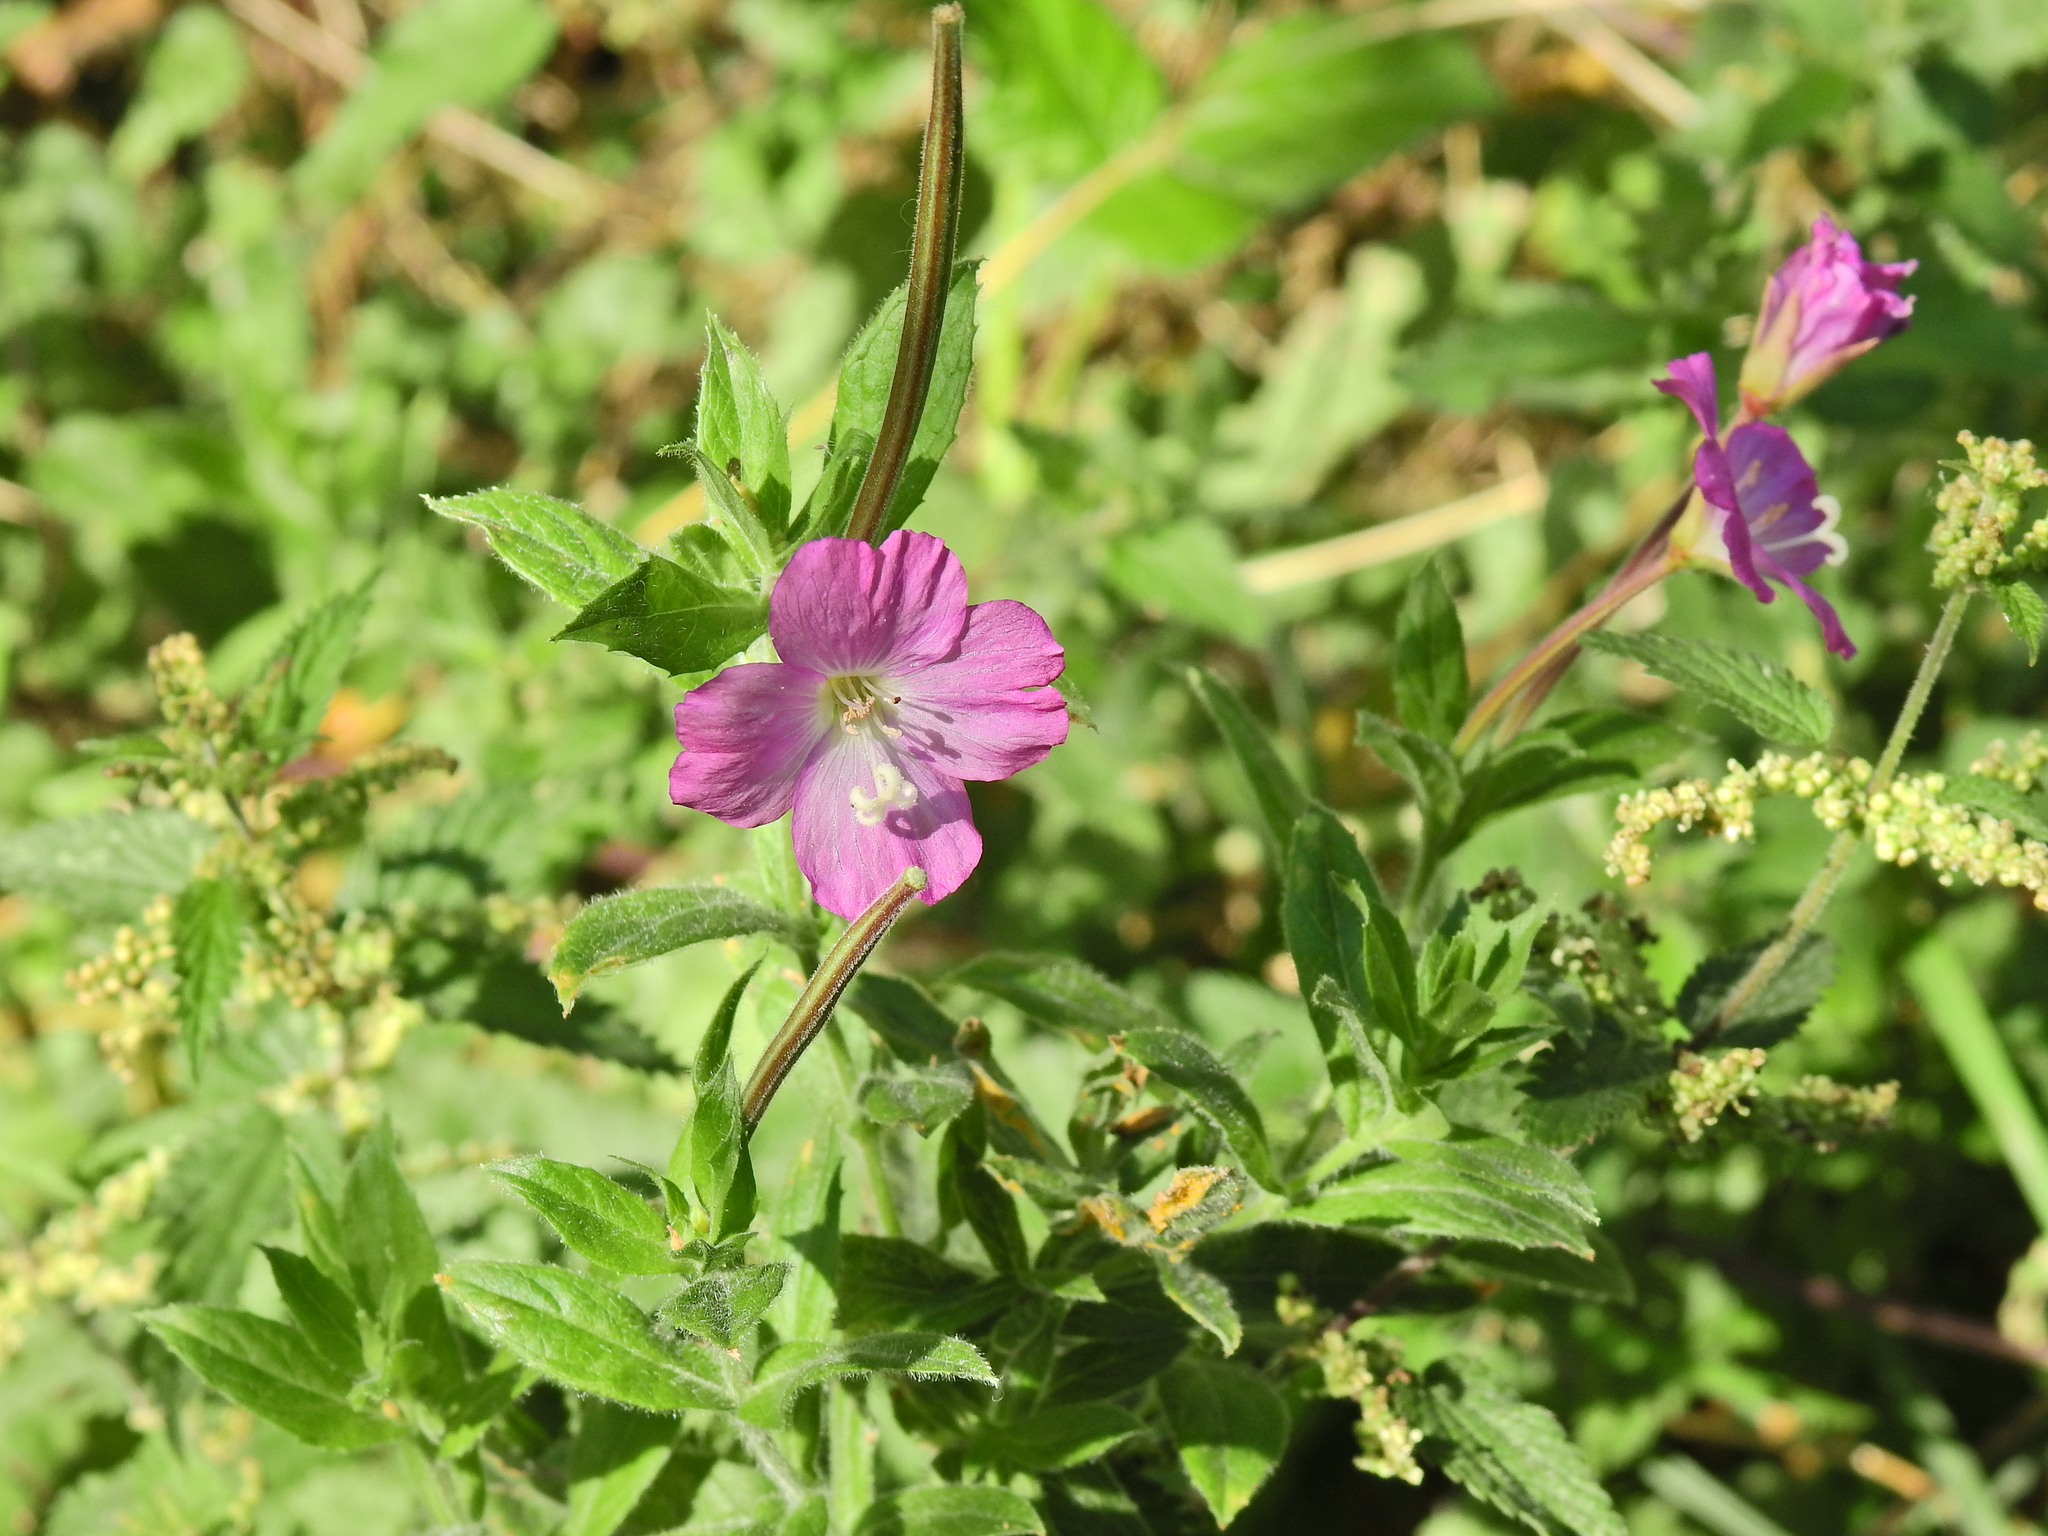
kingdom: Plantae
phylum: Tracheophyta
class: Magnoliopsida
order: Myrtales
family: Onagraceae
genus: Epilobium
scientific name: Epilobium hirsutum
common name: Great willowherb
